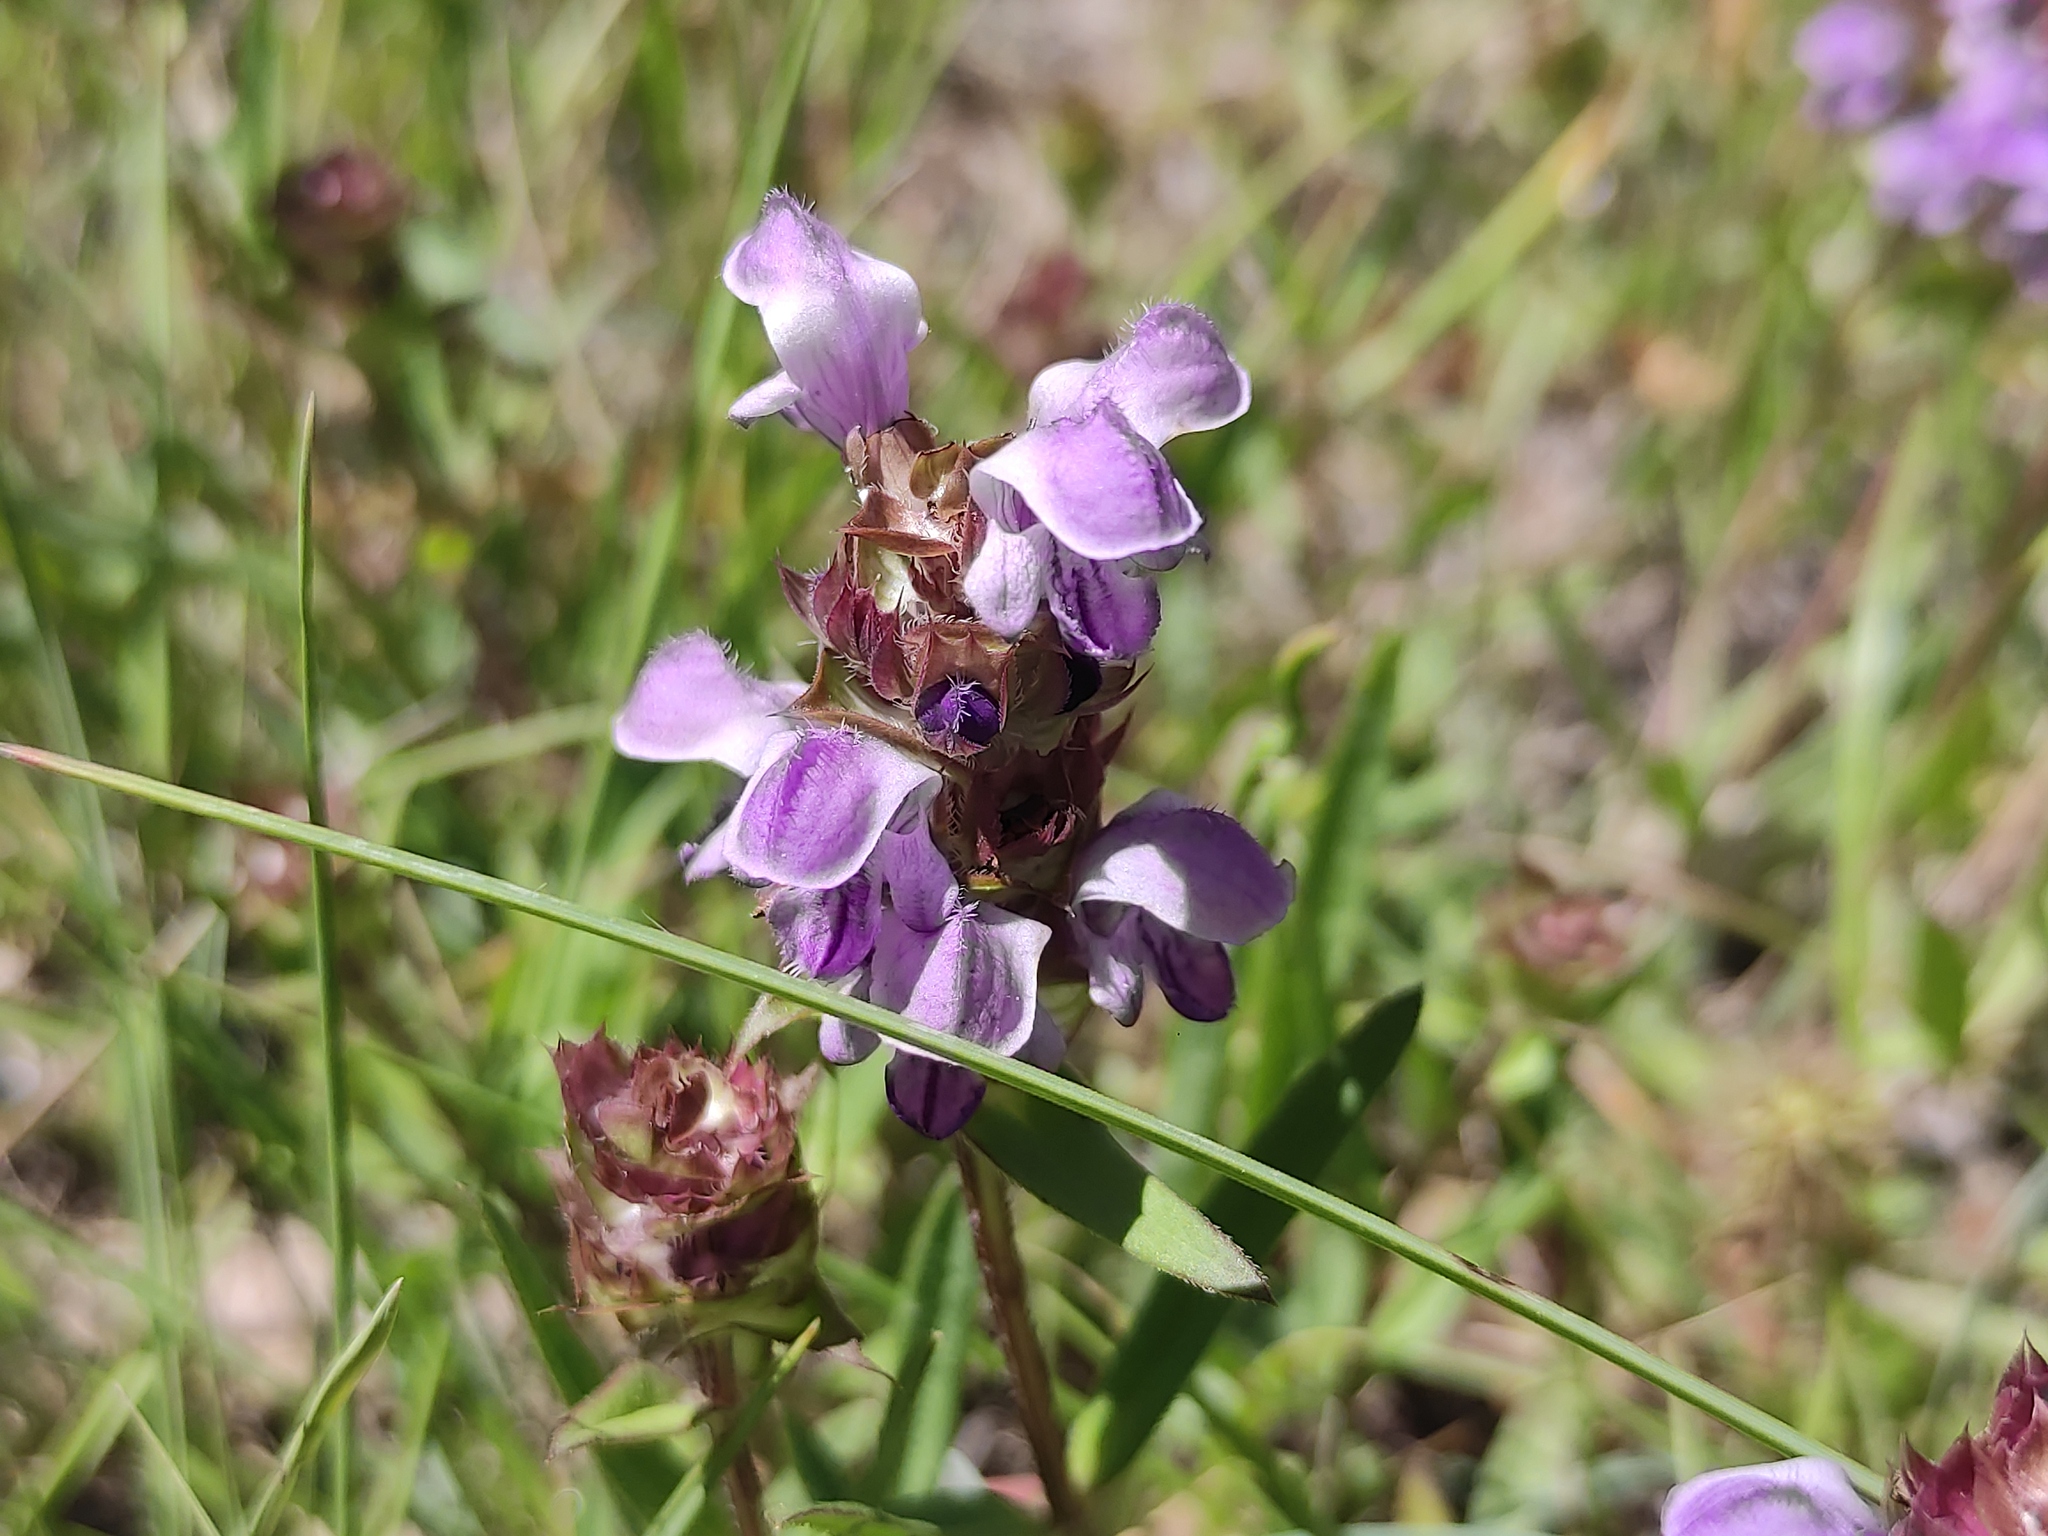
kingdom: Plantae
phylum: Tracheophyta
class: Magnoliopsida
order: Lamiales
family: Lamiaceae
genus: Prunella
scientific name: Prunella hyssopifolia
